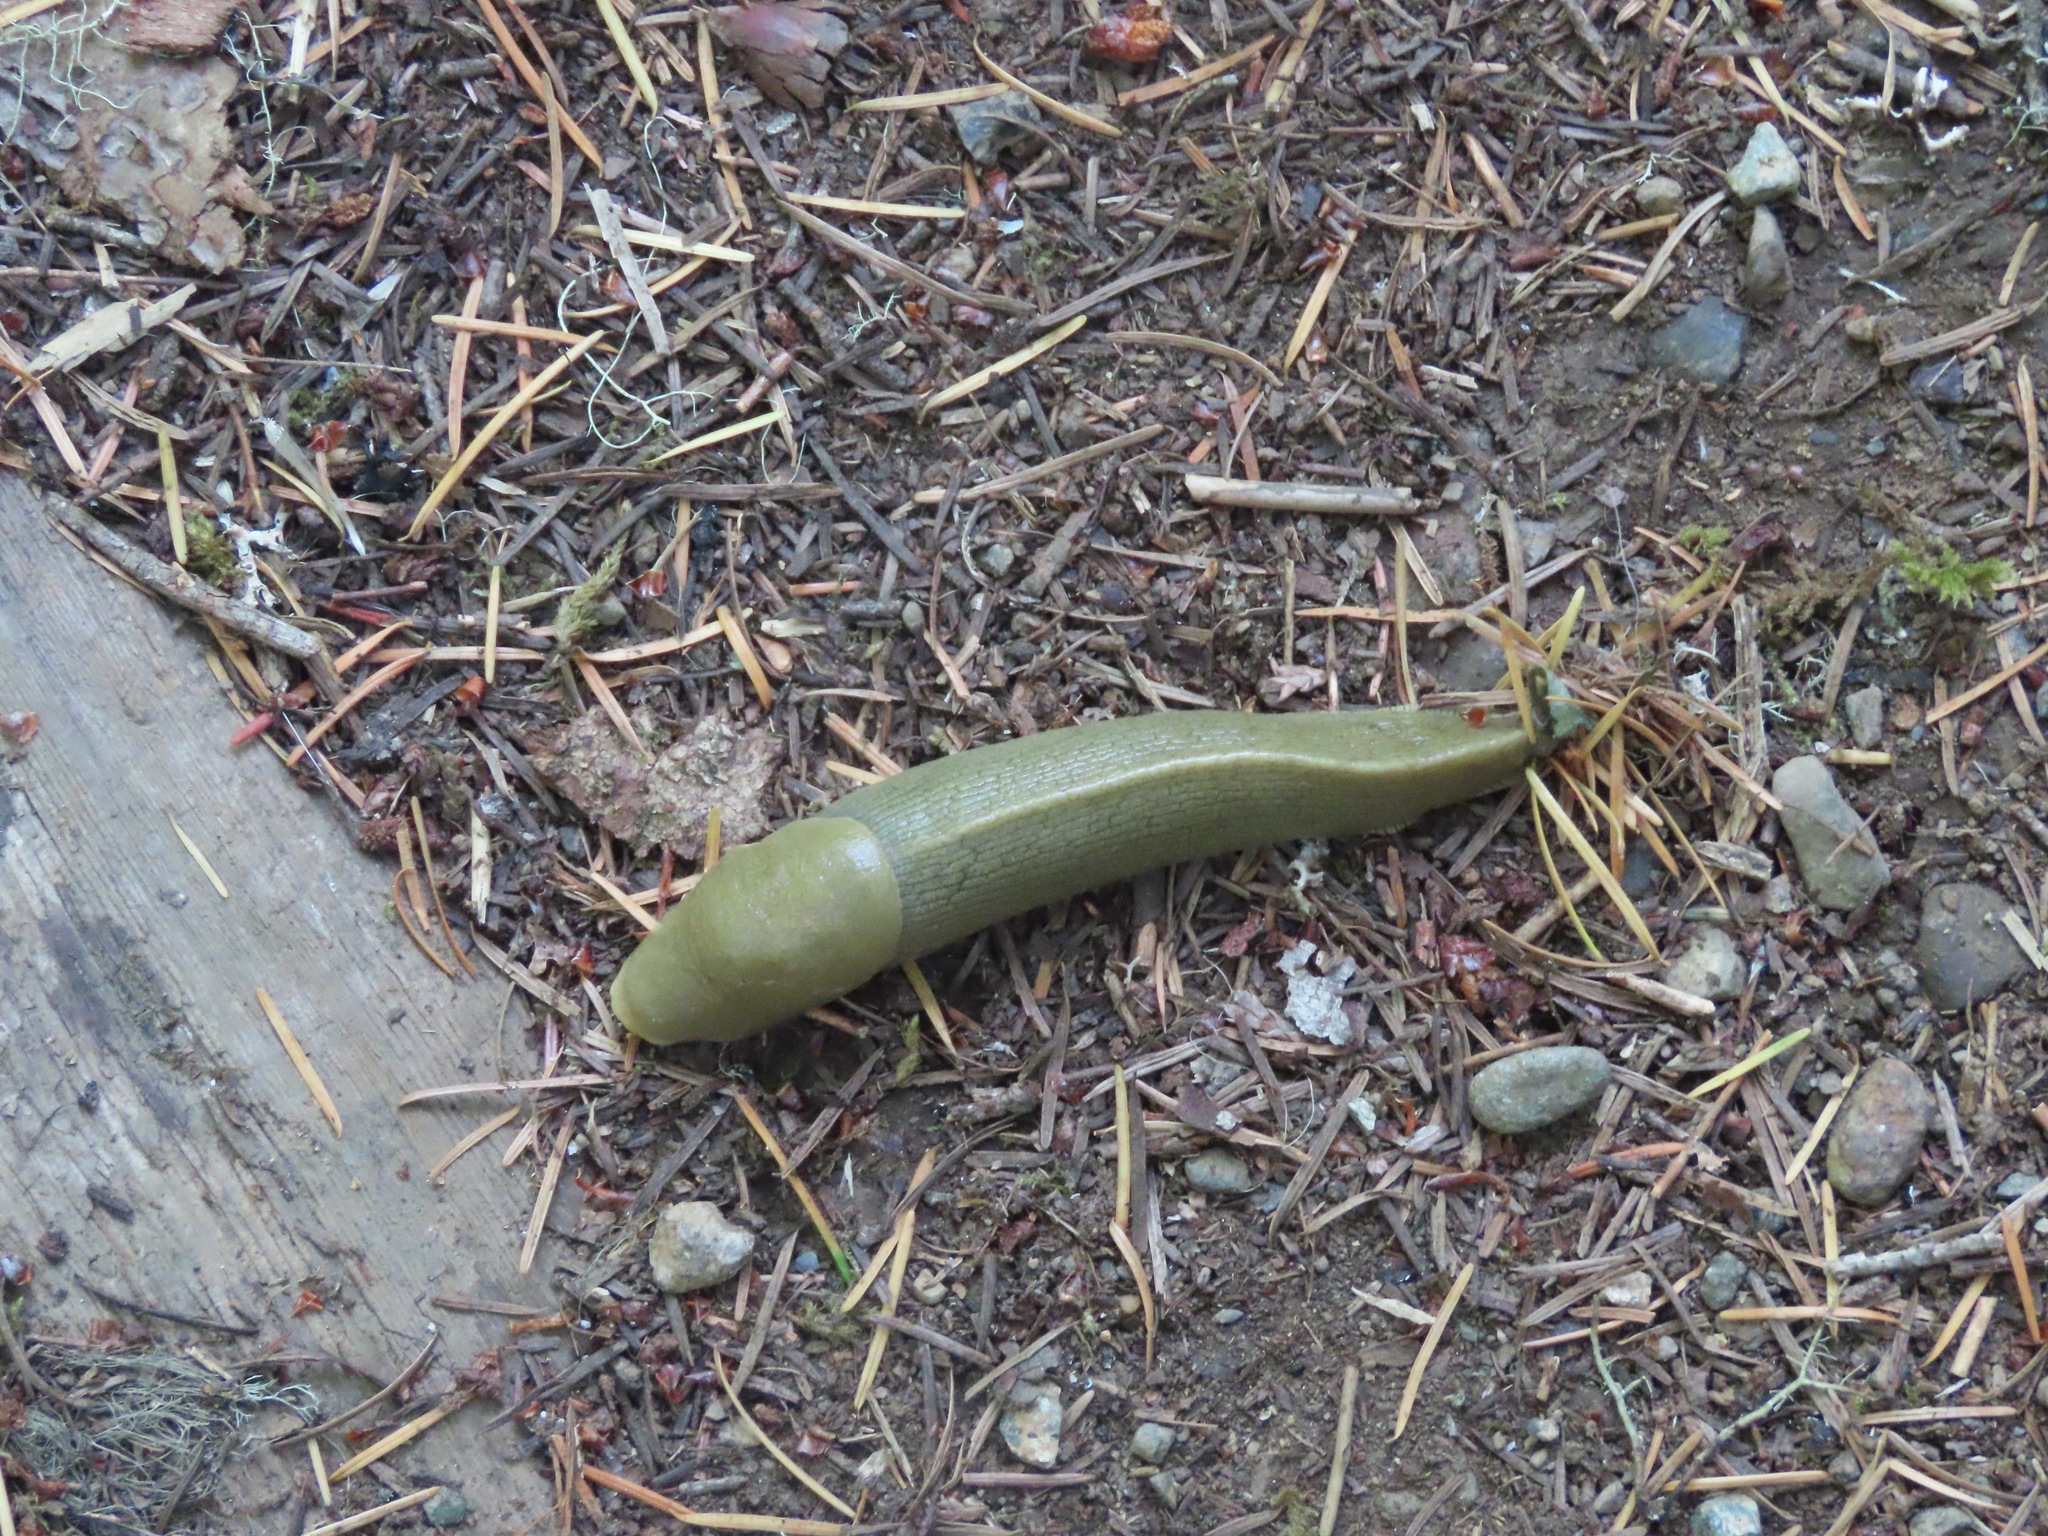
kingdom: Animalia
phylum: Mollusca
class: Gastropoda
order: Stylommatophora
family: Ariolimacidae
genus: Ariolimax
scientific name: Ariolimax columbianus
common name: Pacific banana slug
